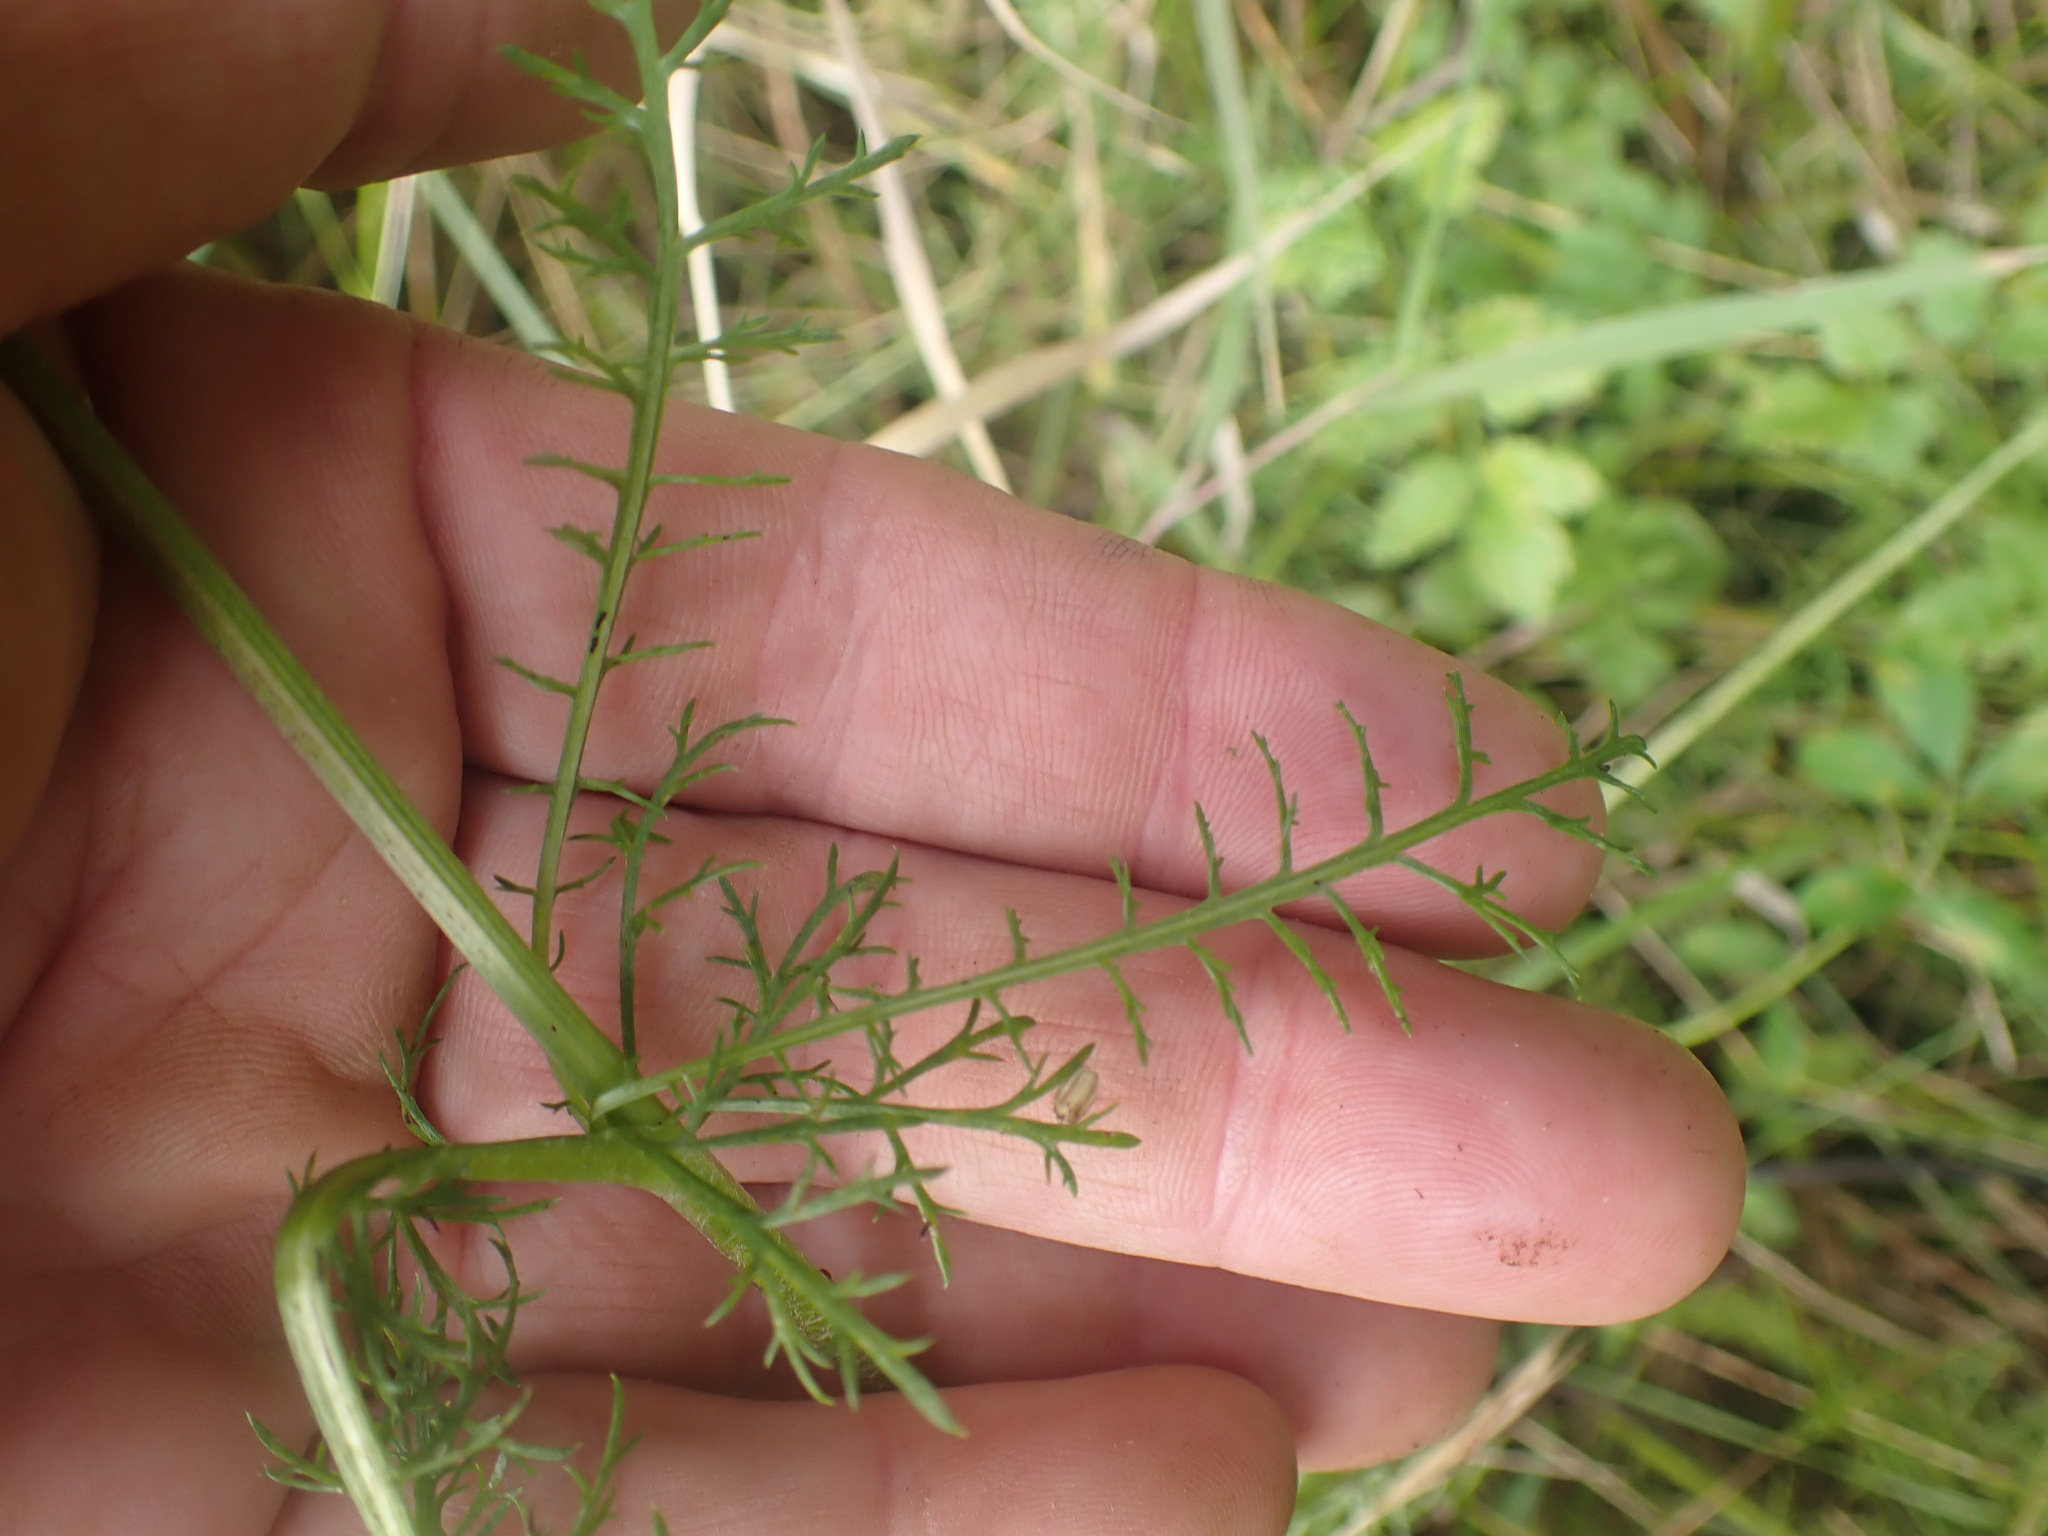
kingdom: Plantae
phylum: Tracheophyta
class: Magnoliopsida
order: Asterales
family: Asteraceae
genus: Achillea
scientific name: Achillea millefolium
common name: Yarrow
